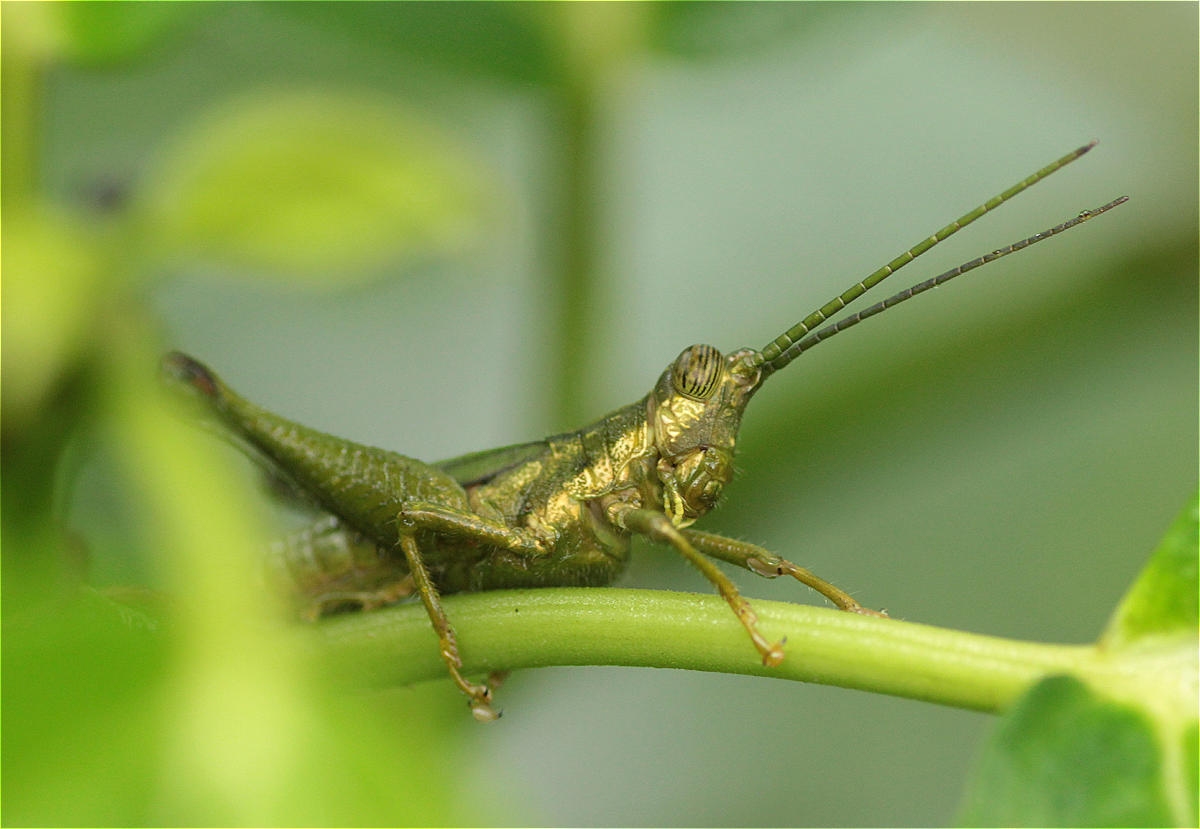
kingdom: Animalia
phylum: Arthropoda
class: Insecta
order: Orthoptera
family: Acrididae
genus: Syntomacris
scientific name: Syntomacris viridis
